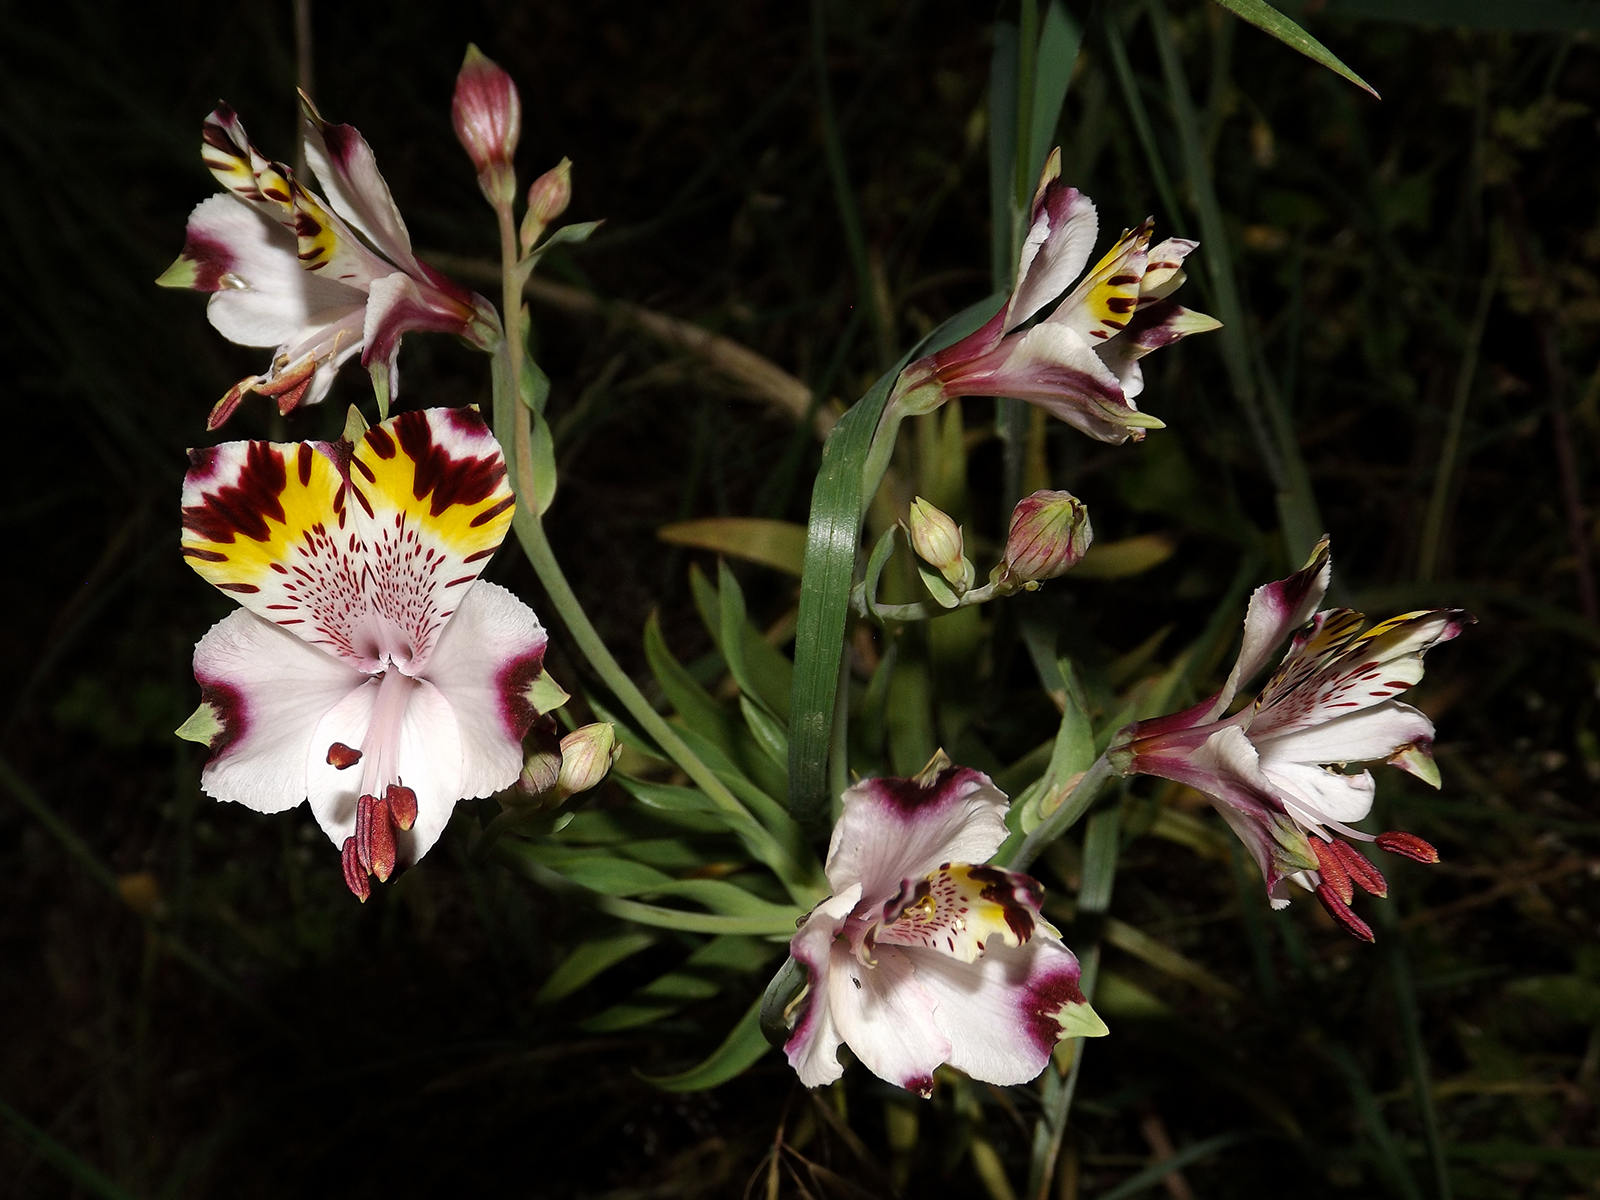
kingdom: Plantae
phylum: Tracheophyta
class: Liliopsida
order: Liliales
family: Alstroemeriaceae
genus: Alstroemeria
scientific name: Alstroemeria pulchra
